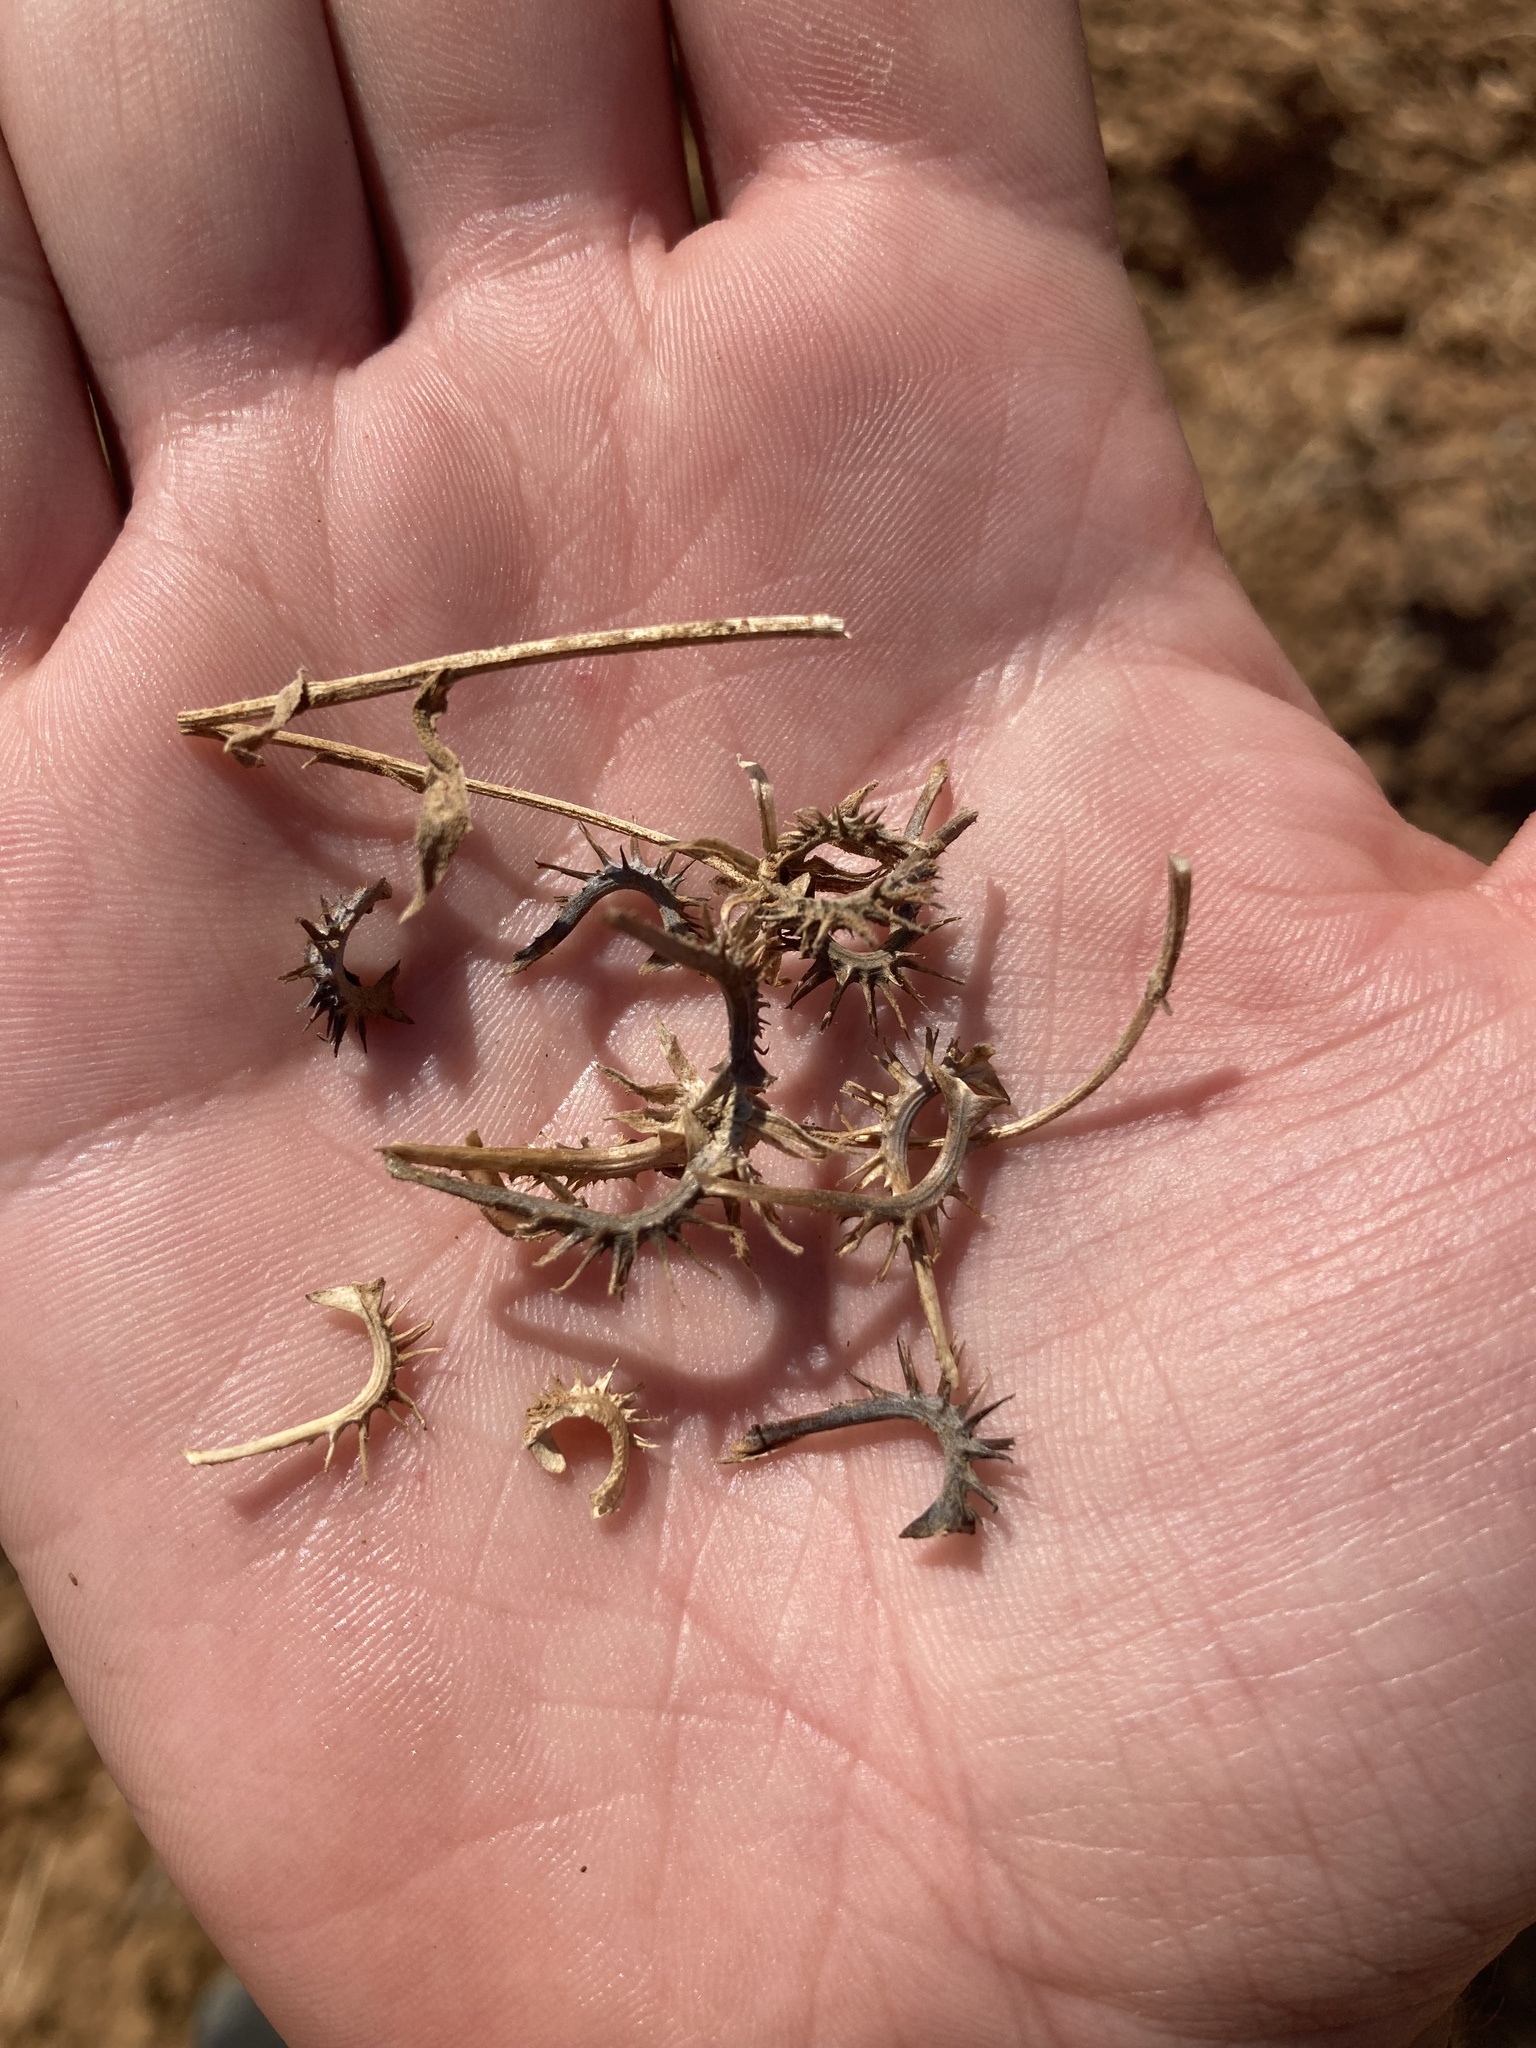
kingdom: Plantae
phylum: Tracheophyta
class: Magnoliopsida
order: Asterales
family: Asteraceae
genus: Calendula
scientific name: Calendula arvensis
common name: Field marigold
